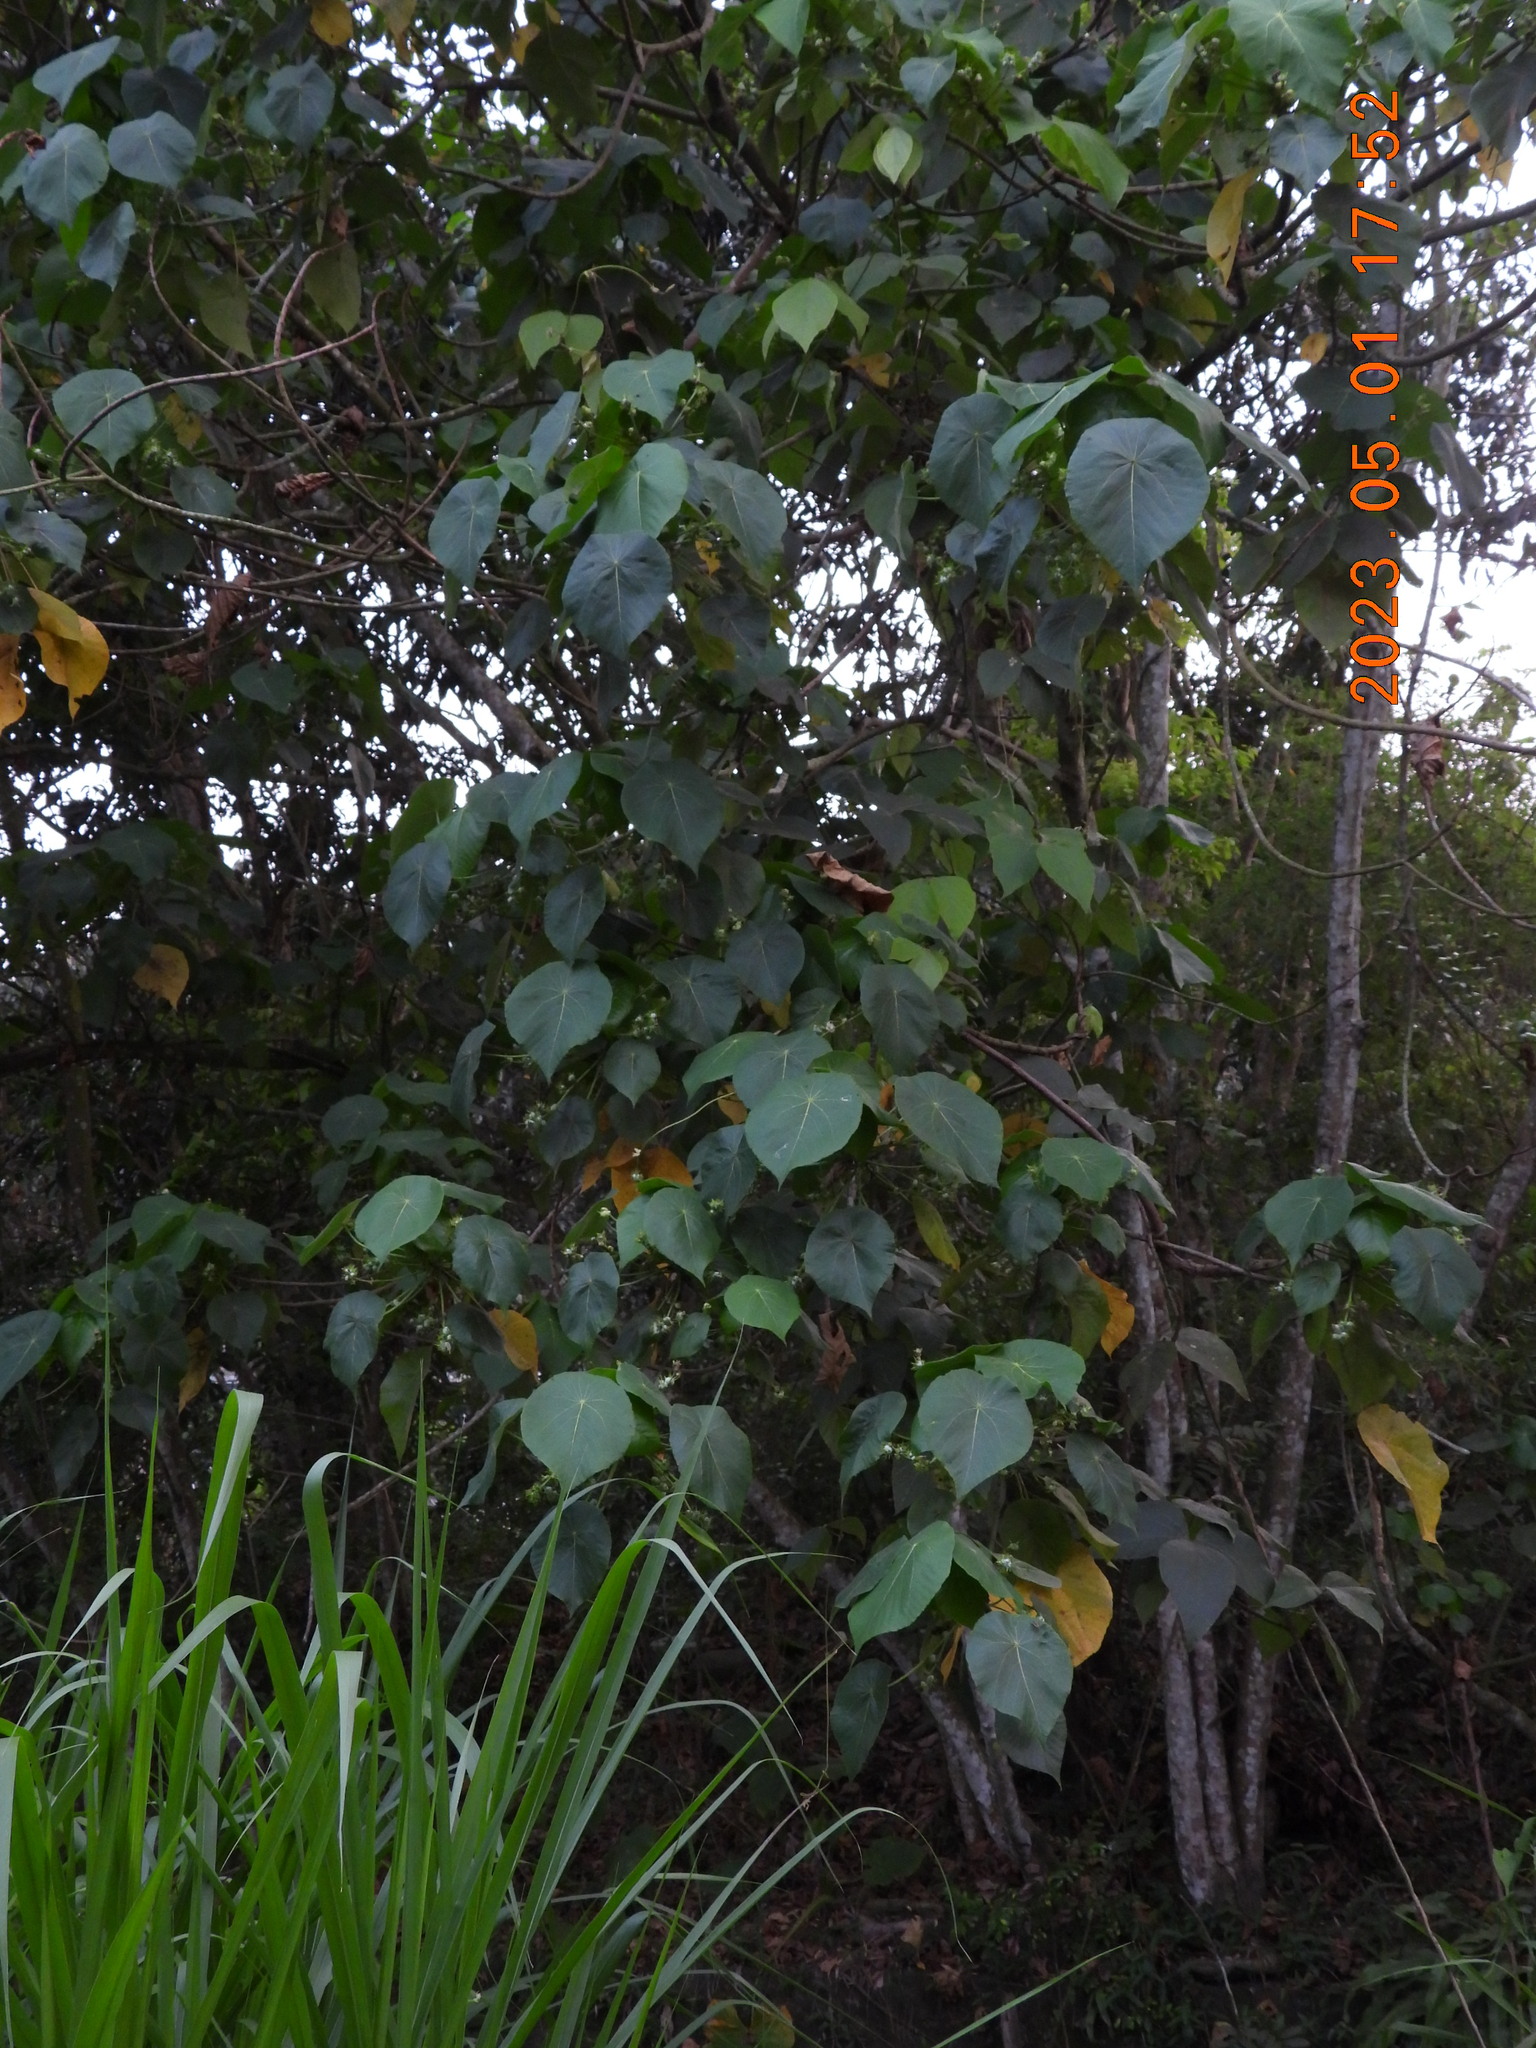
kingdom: Plantae
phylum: Tracheophyta
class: Magnoliopsida
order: Malpighiales
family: Euphorbiaceae
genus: Macaranga
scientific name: Macaranga tanarius
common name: Parasol leaf tree
